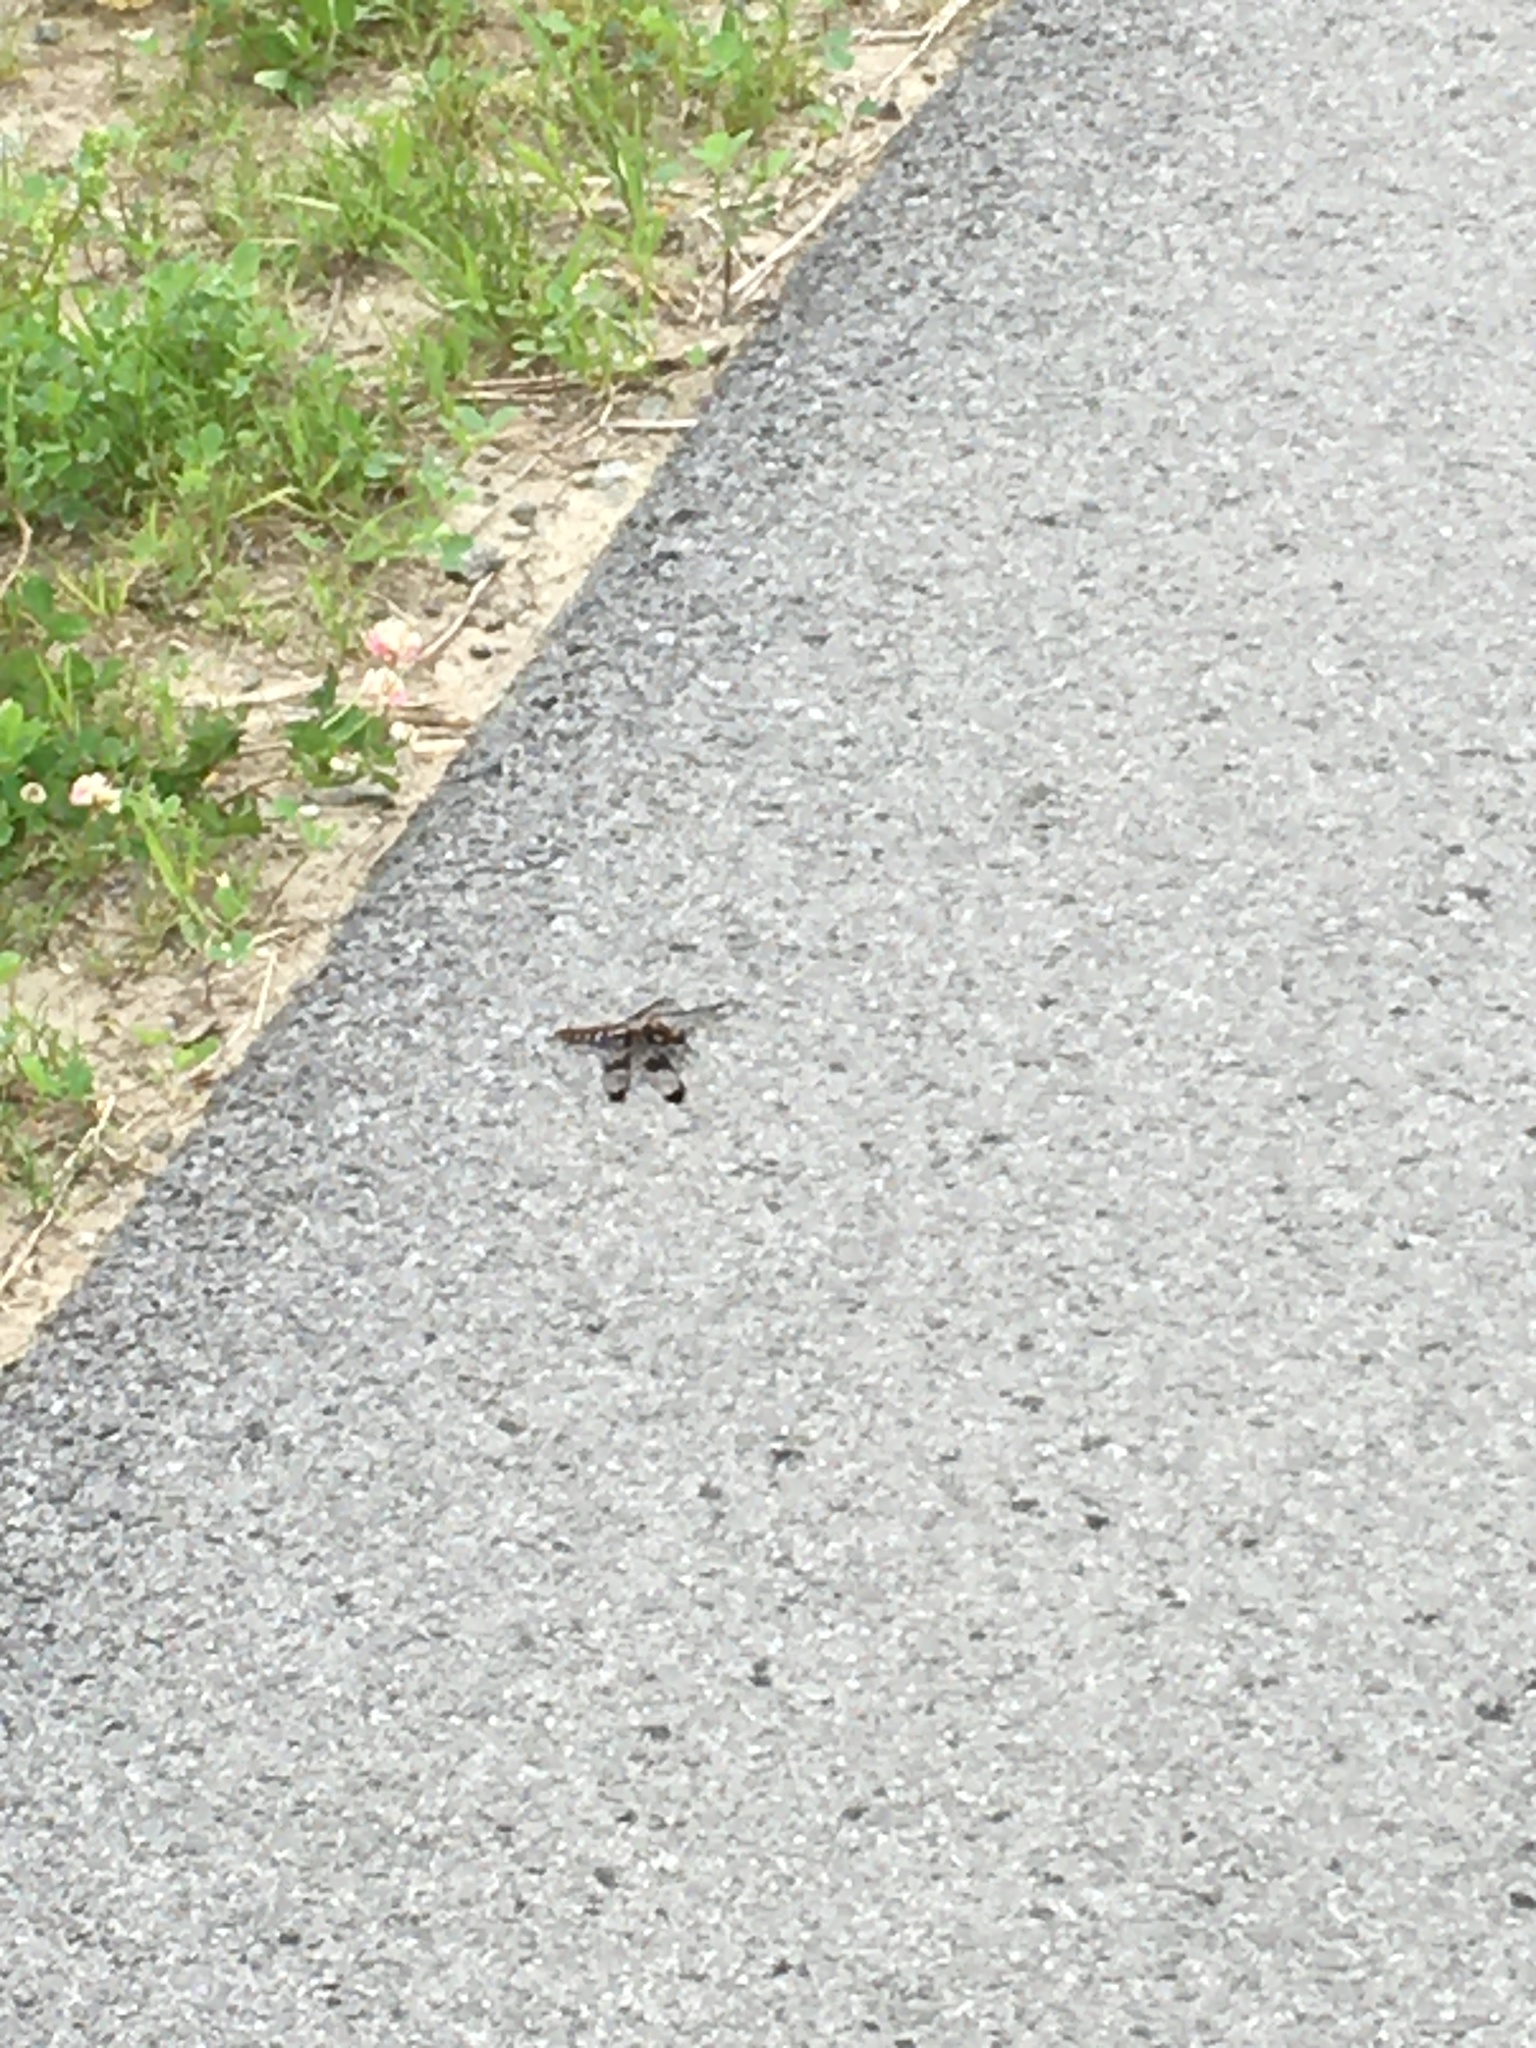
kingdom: Animalia
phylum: Arthropoda
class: Insecta
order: Odonata
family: Libellulidae
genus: Plathemis
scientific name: Plathemis lydia
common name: Common whitetail
